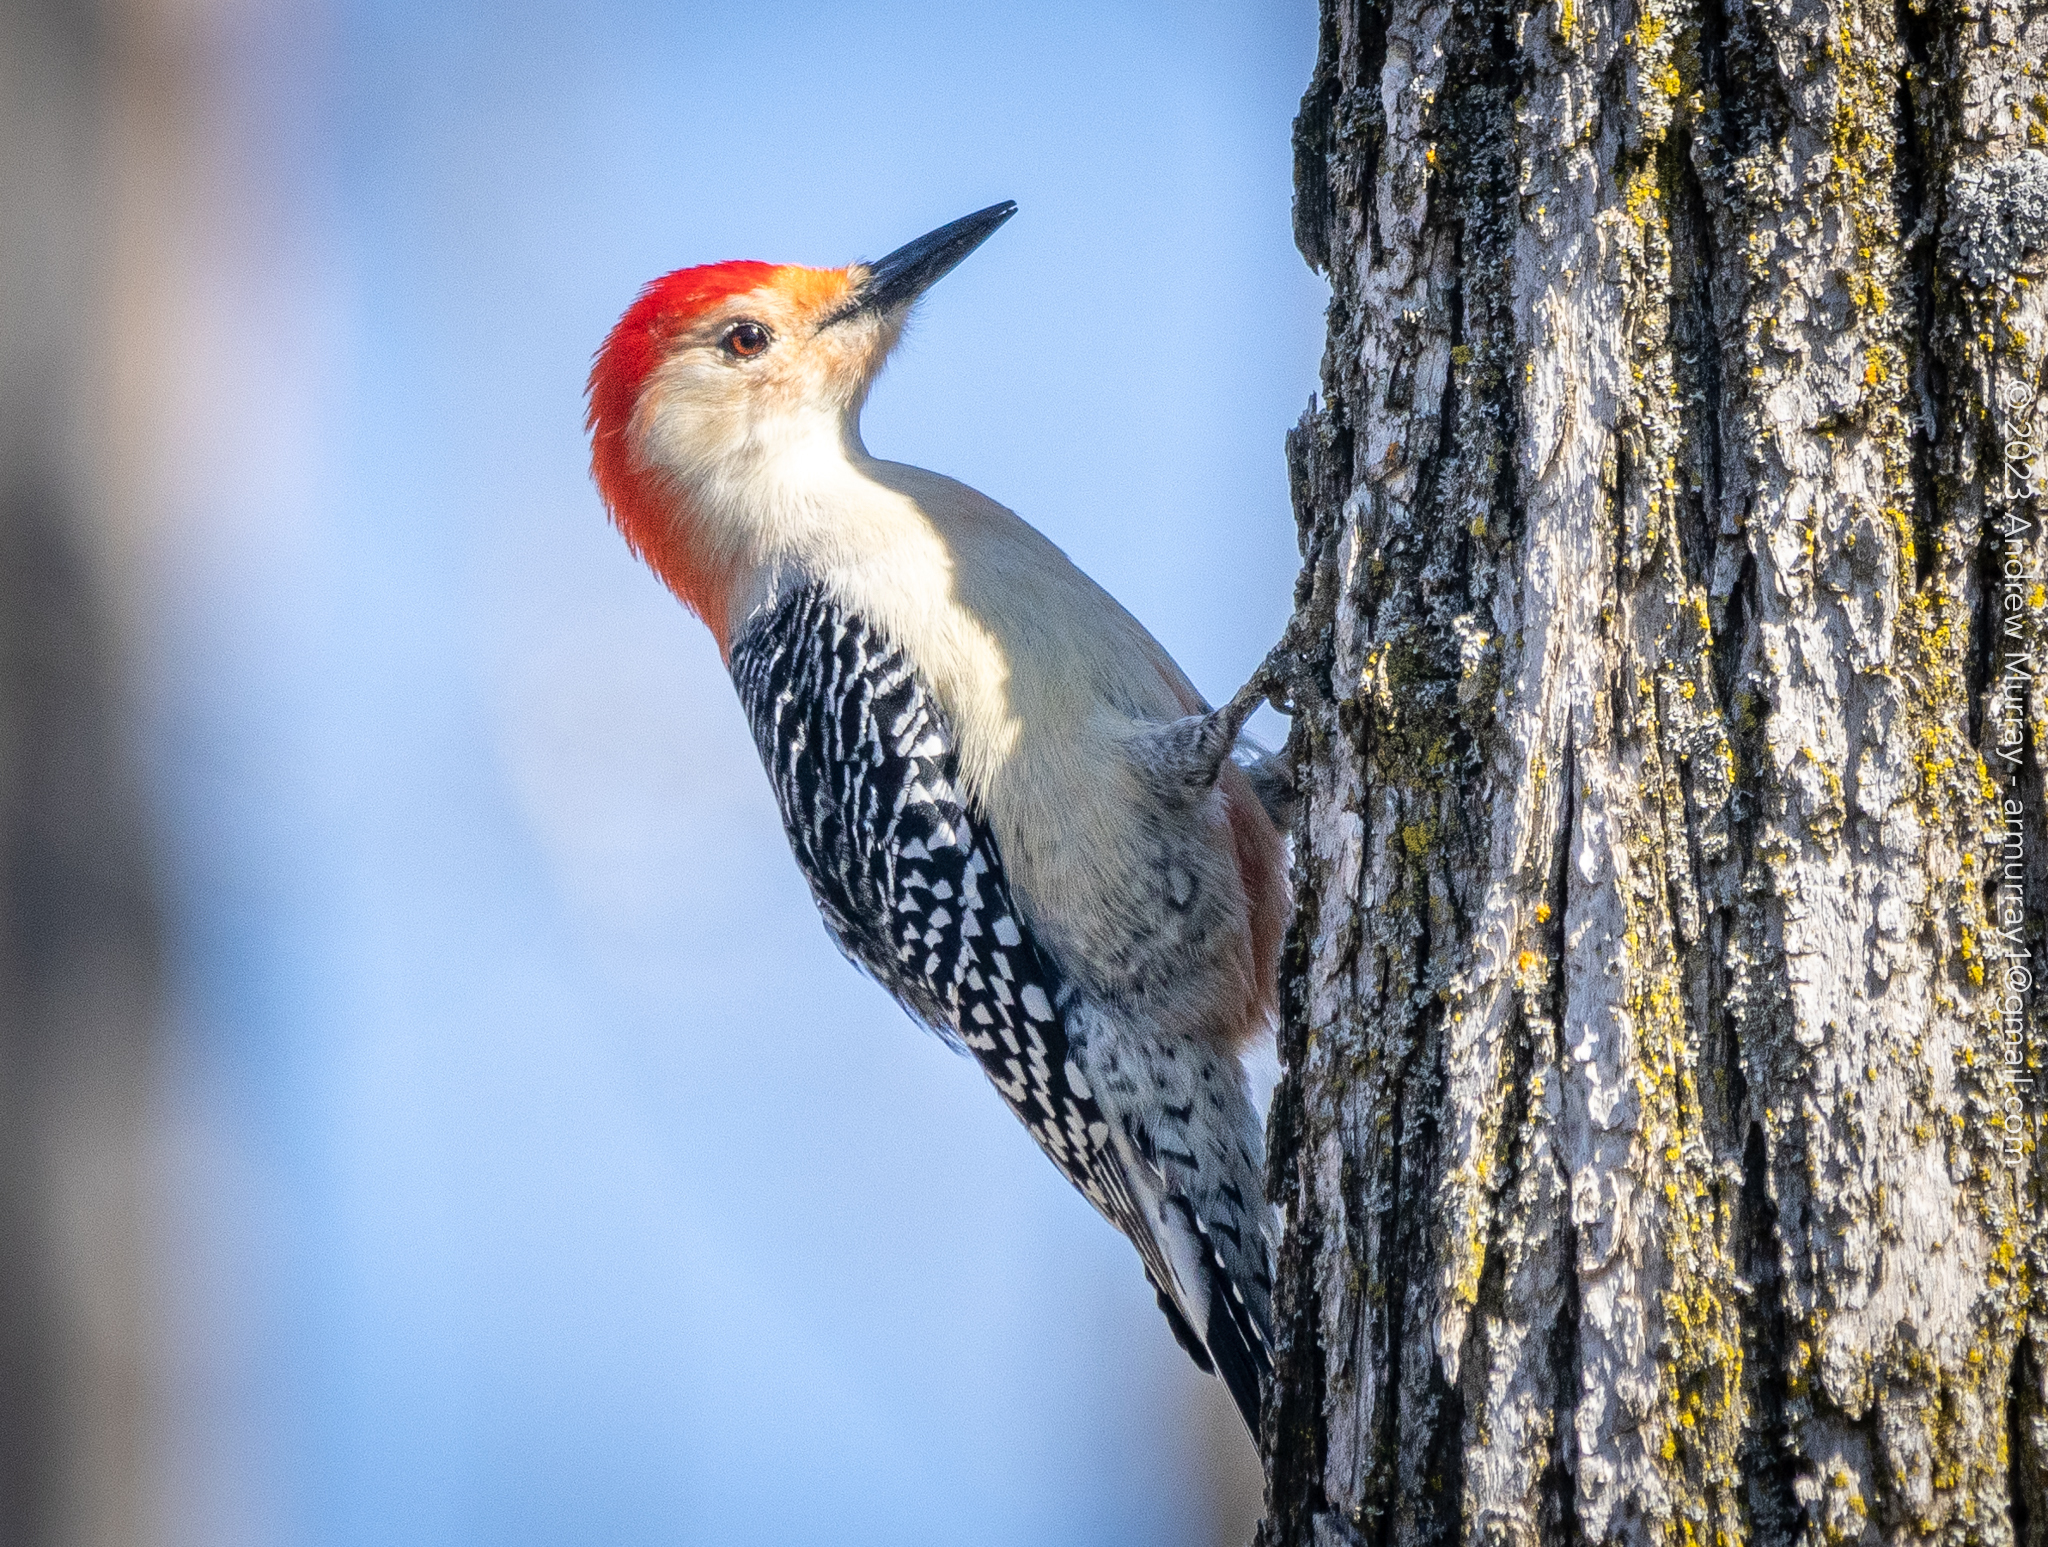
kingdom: Animalia
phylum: Chordata
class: Aves
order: Piciformes
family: Picidae
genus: Melanerpes
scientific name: Melanerpes carolinus
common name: Red-bellied woodpecker
